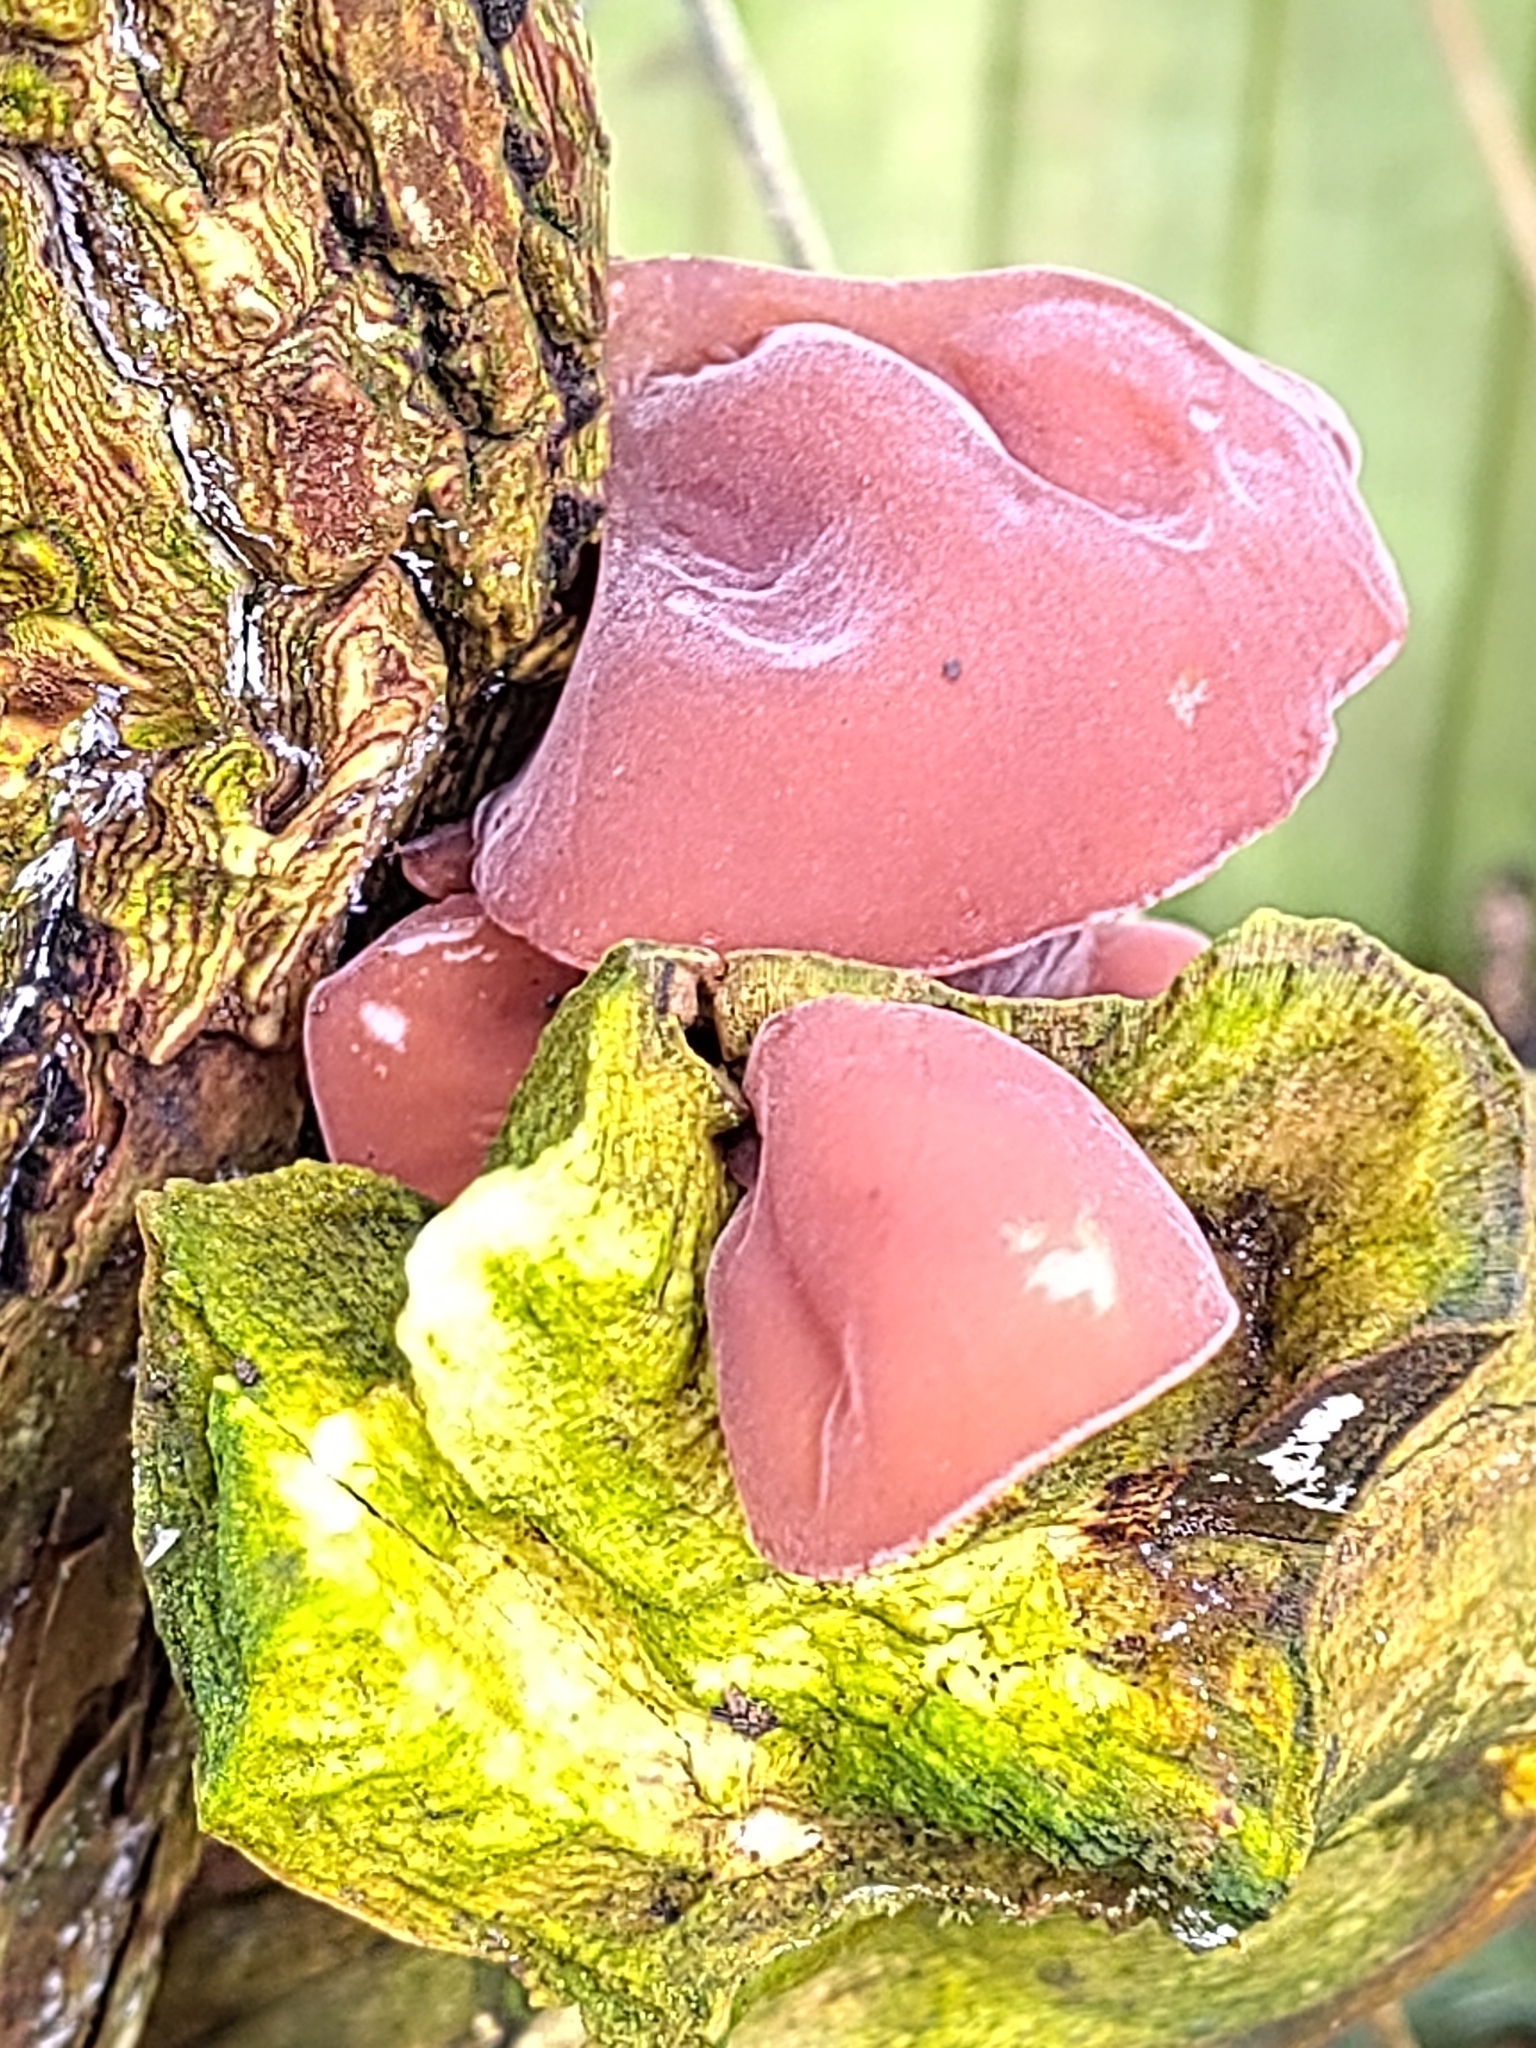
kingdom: Fungi
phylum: Basidiomycota
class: Agaricomycetes
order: Auriculariales
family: Auriculariaceae
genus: Auricularia
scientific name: Auricularia auricula-judae
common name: Jelly ear
